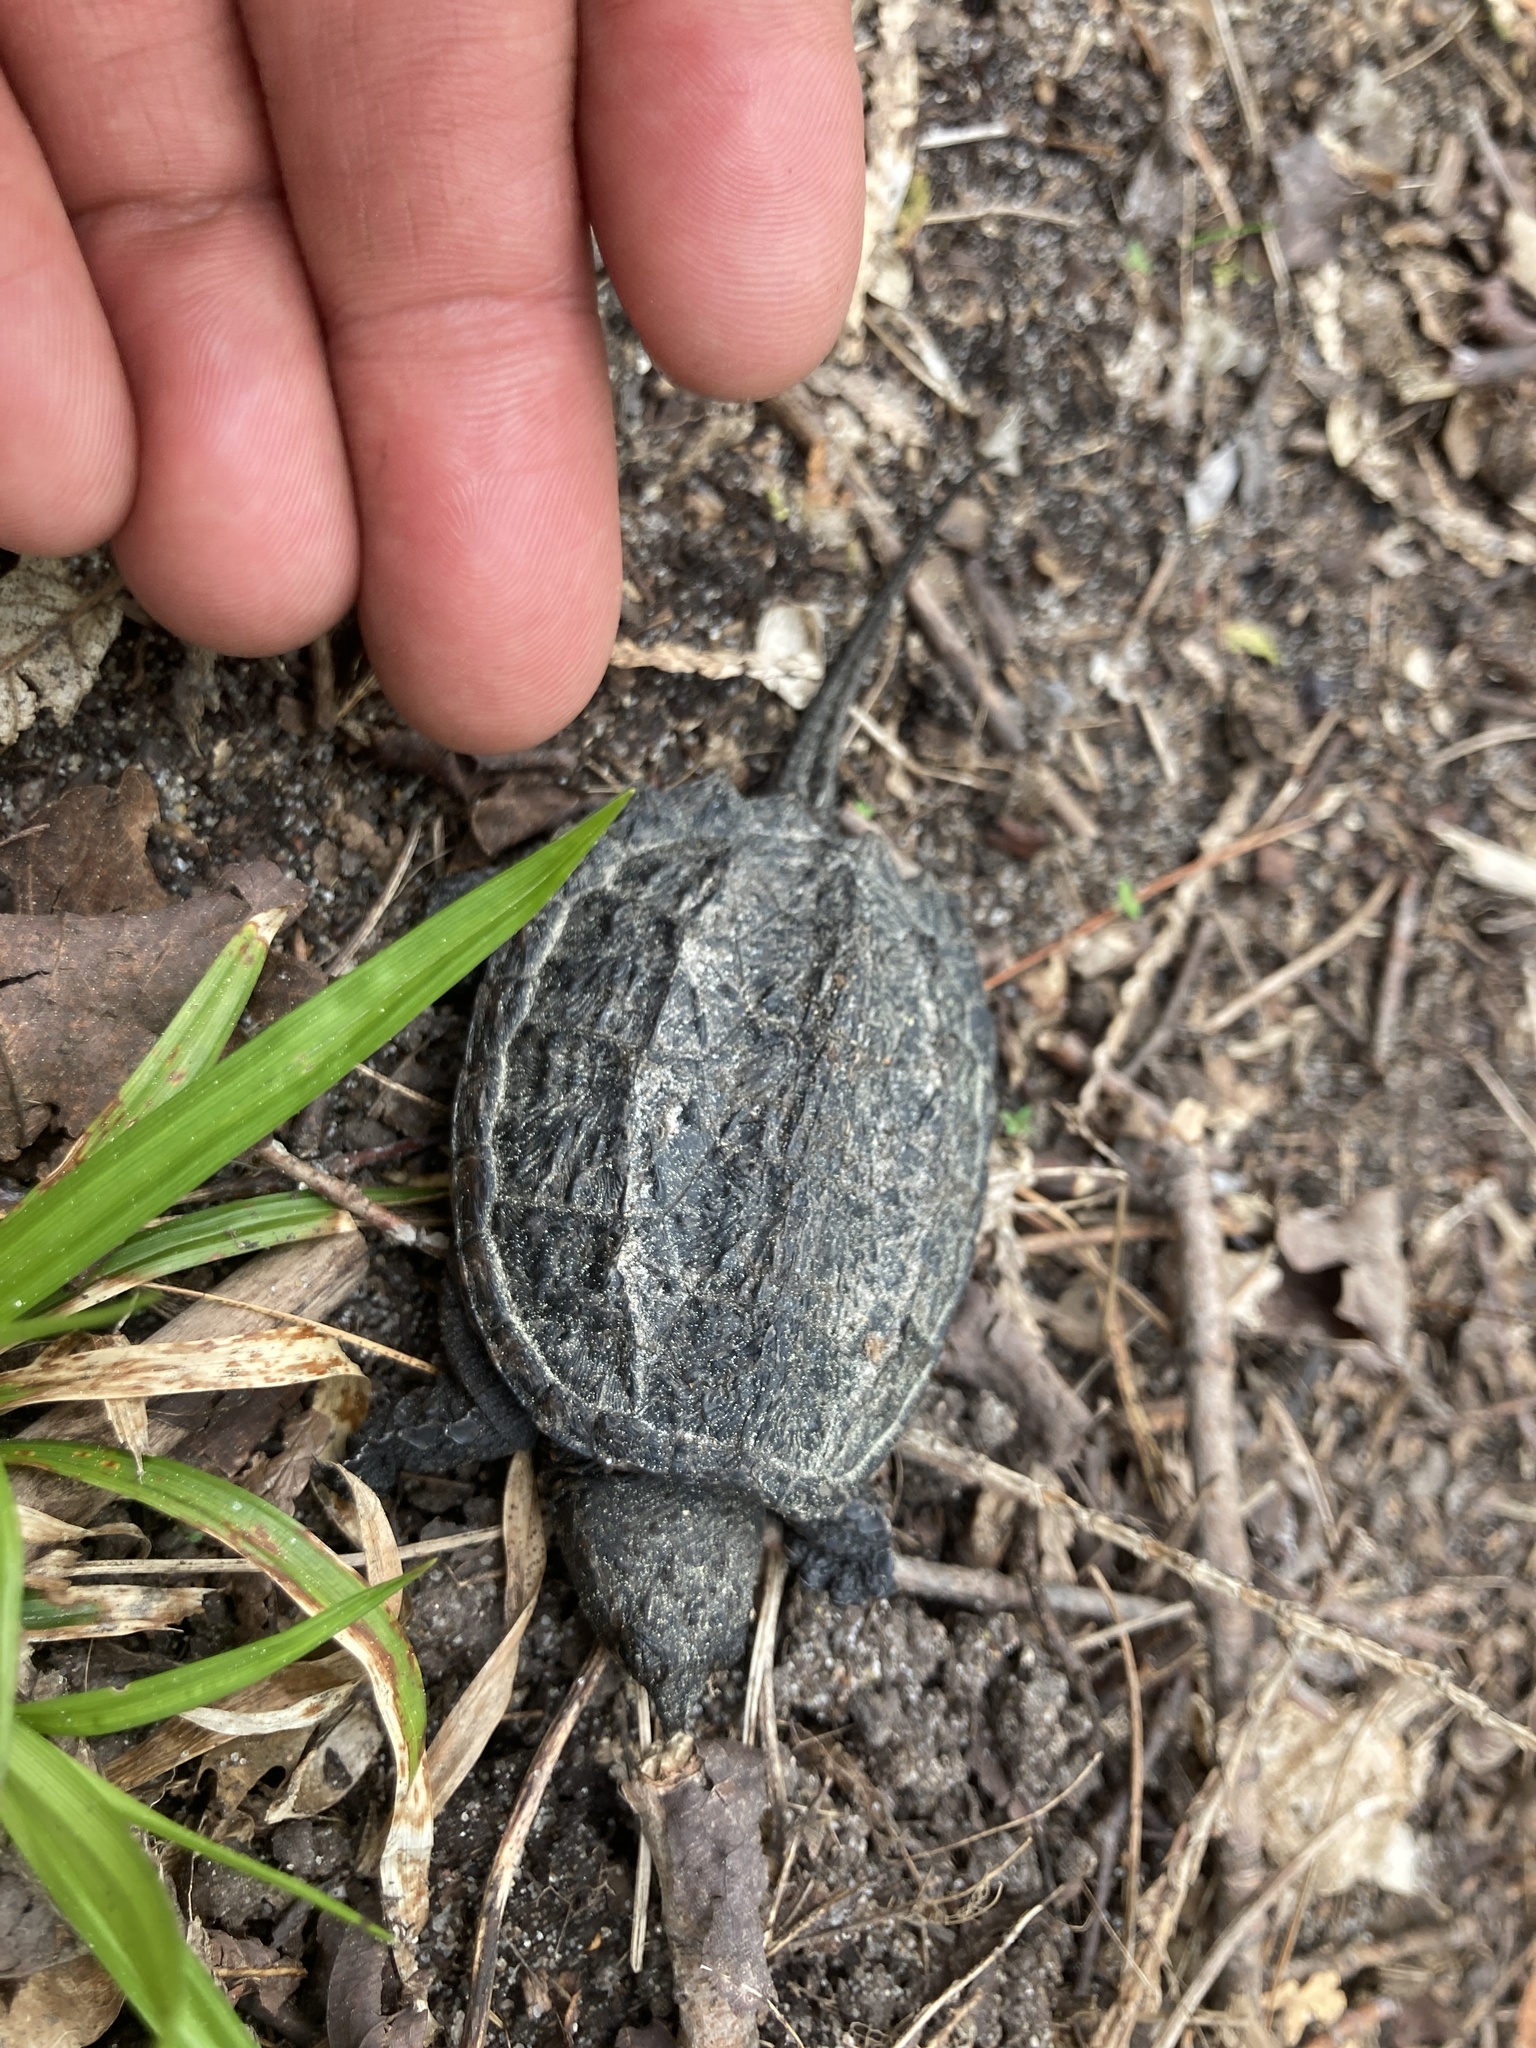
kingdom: Animalia
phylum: Chordata
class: Testudines
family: Chelydridae
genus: Chelydra
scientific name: Chelydra serpentina
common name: Common snapping turtle
